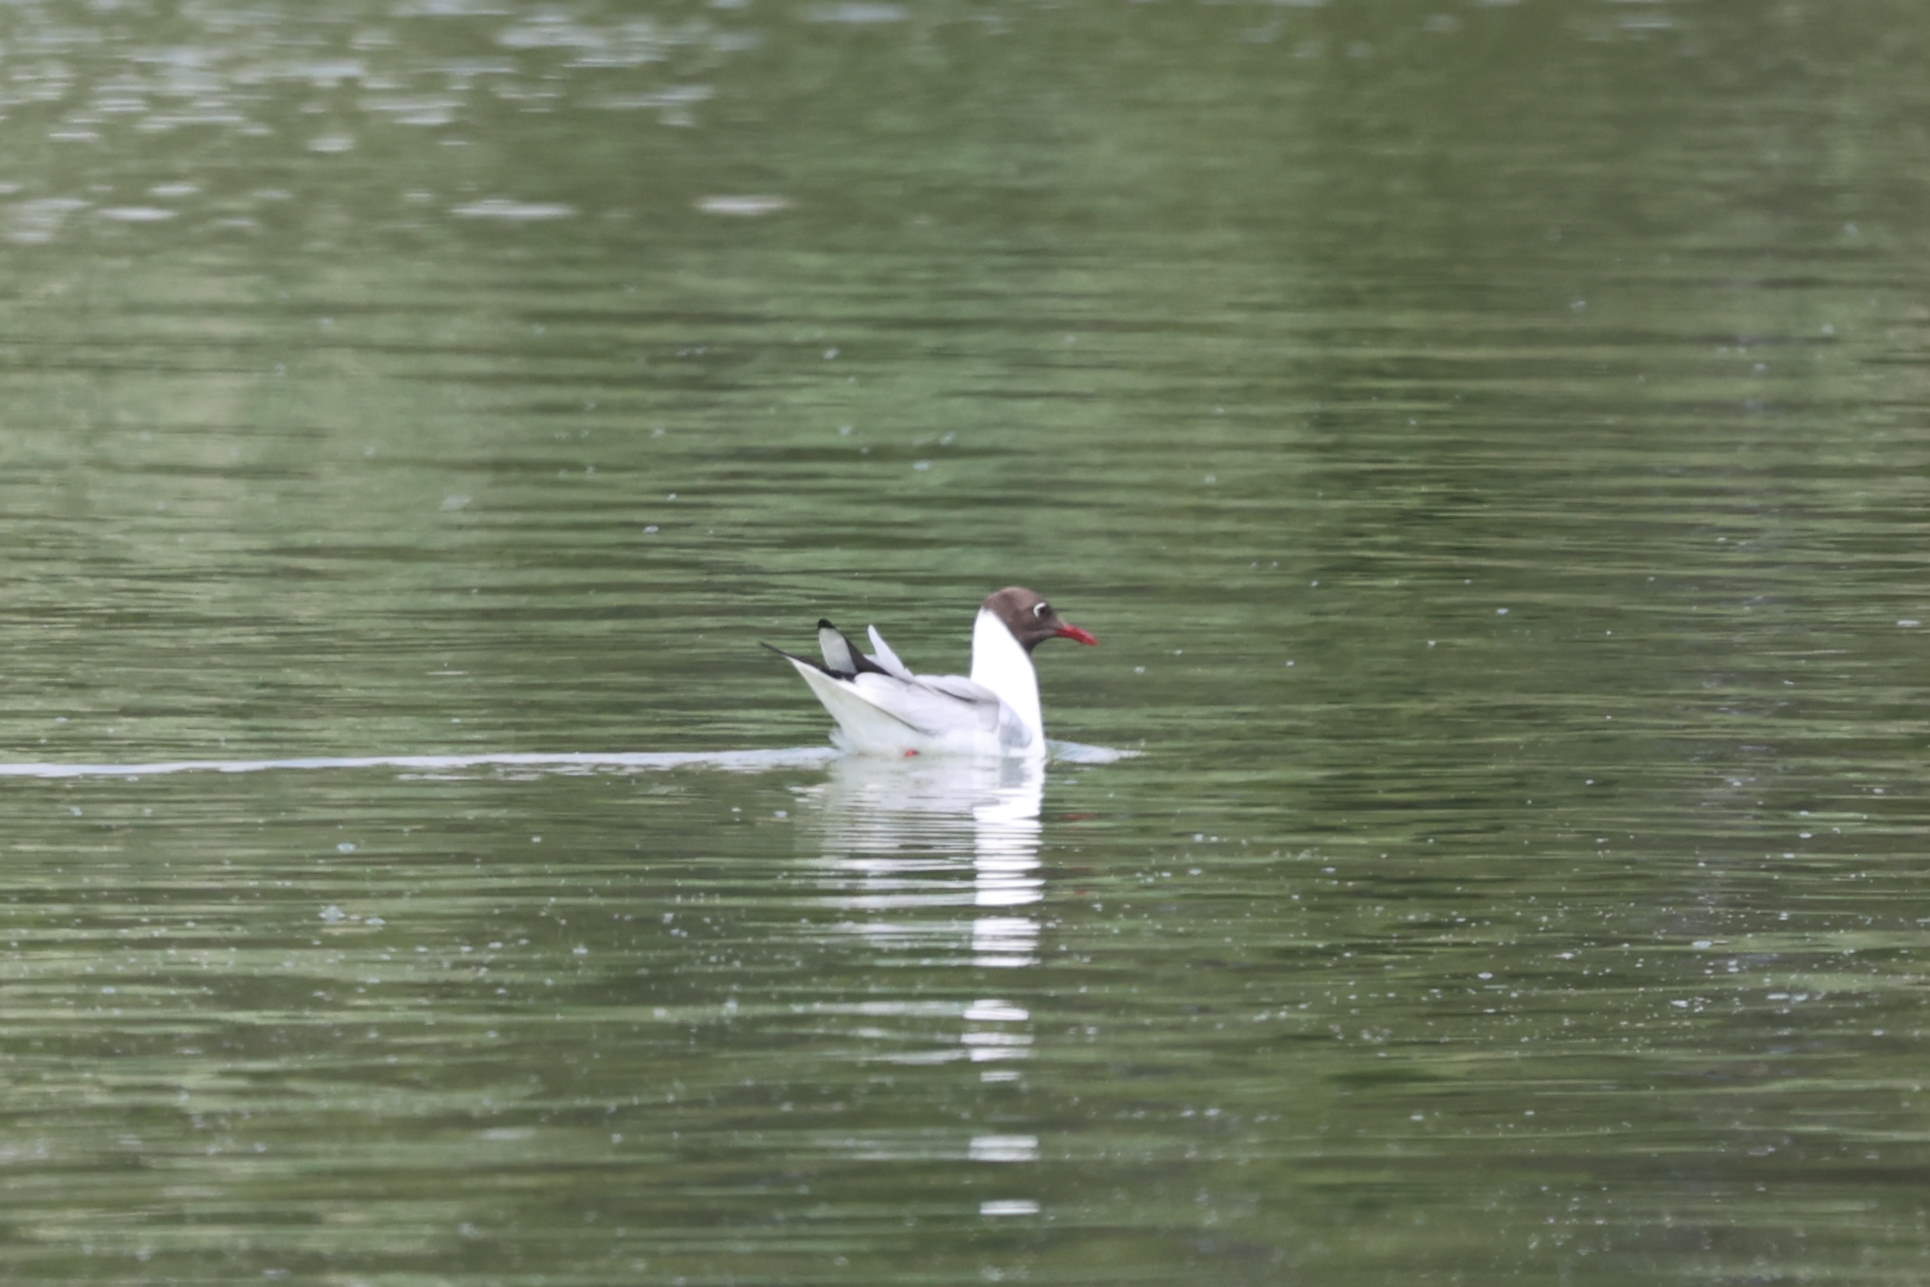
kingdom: Animalia
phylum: Chordata
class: Aves
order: Charadriiformes
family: Laridae
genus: Chroicocephalus
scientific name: Chroicocephalus ridibundus
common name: Black-headed gull
